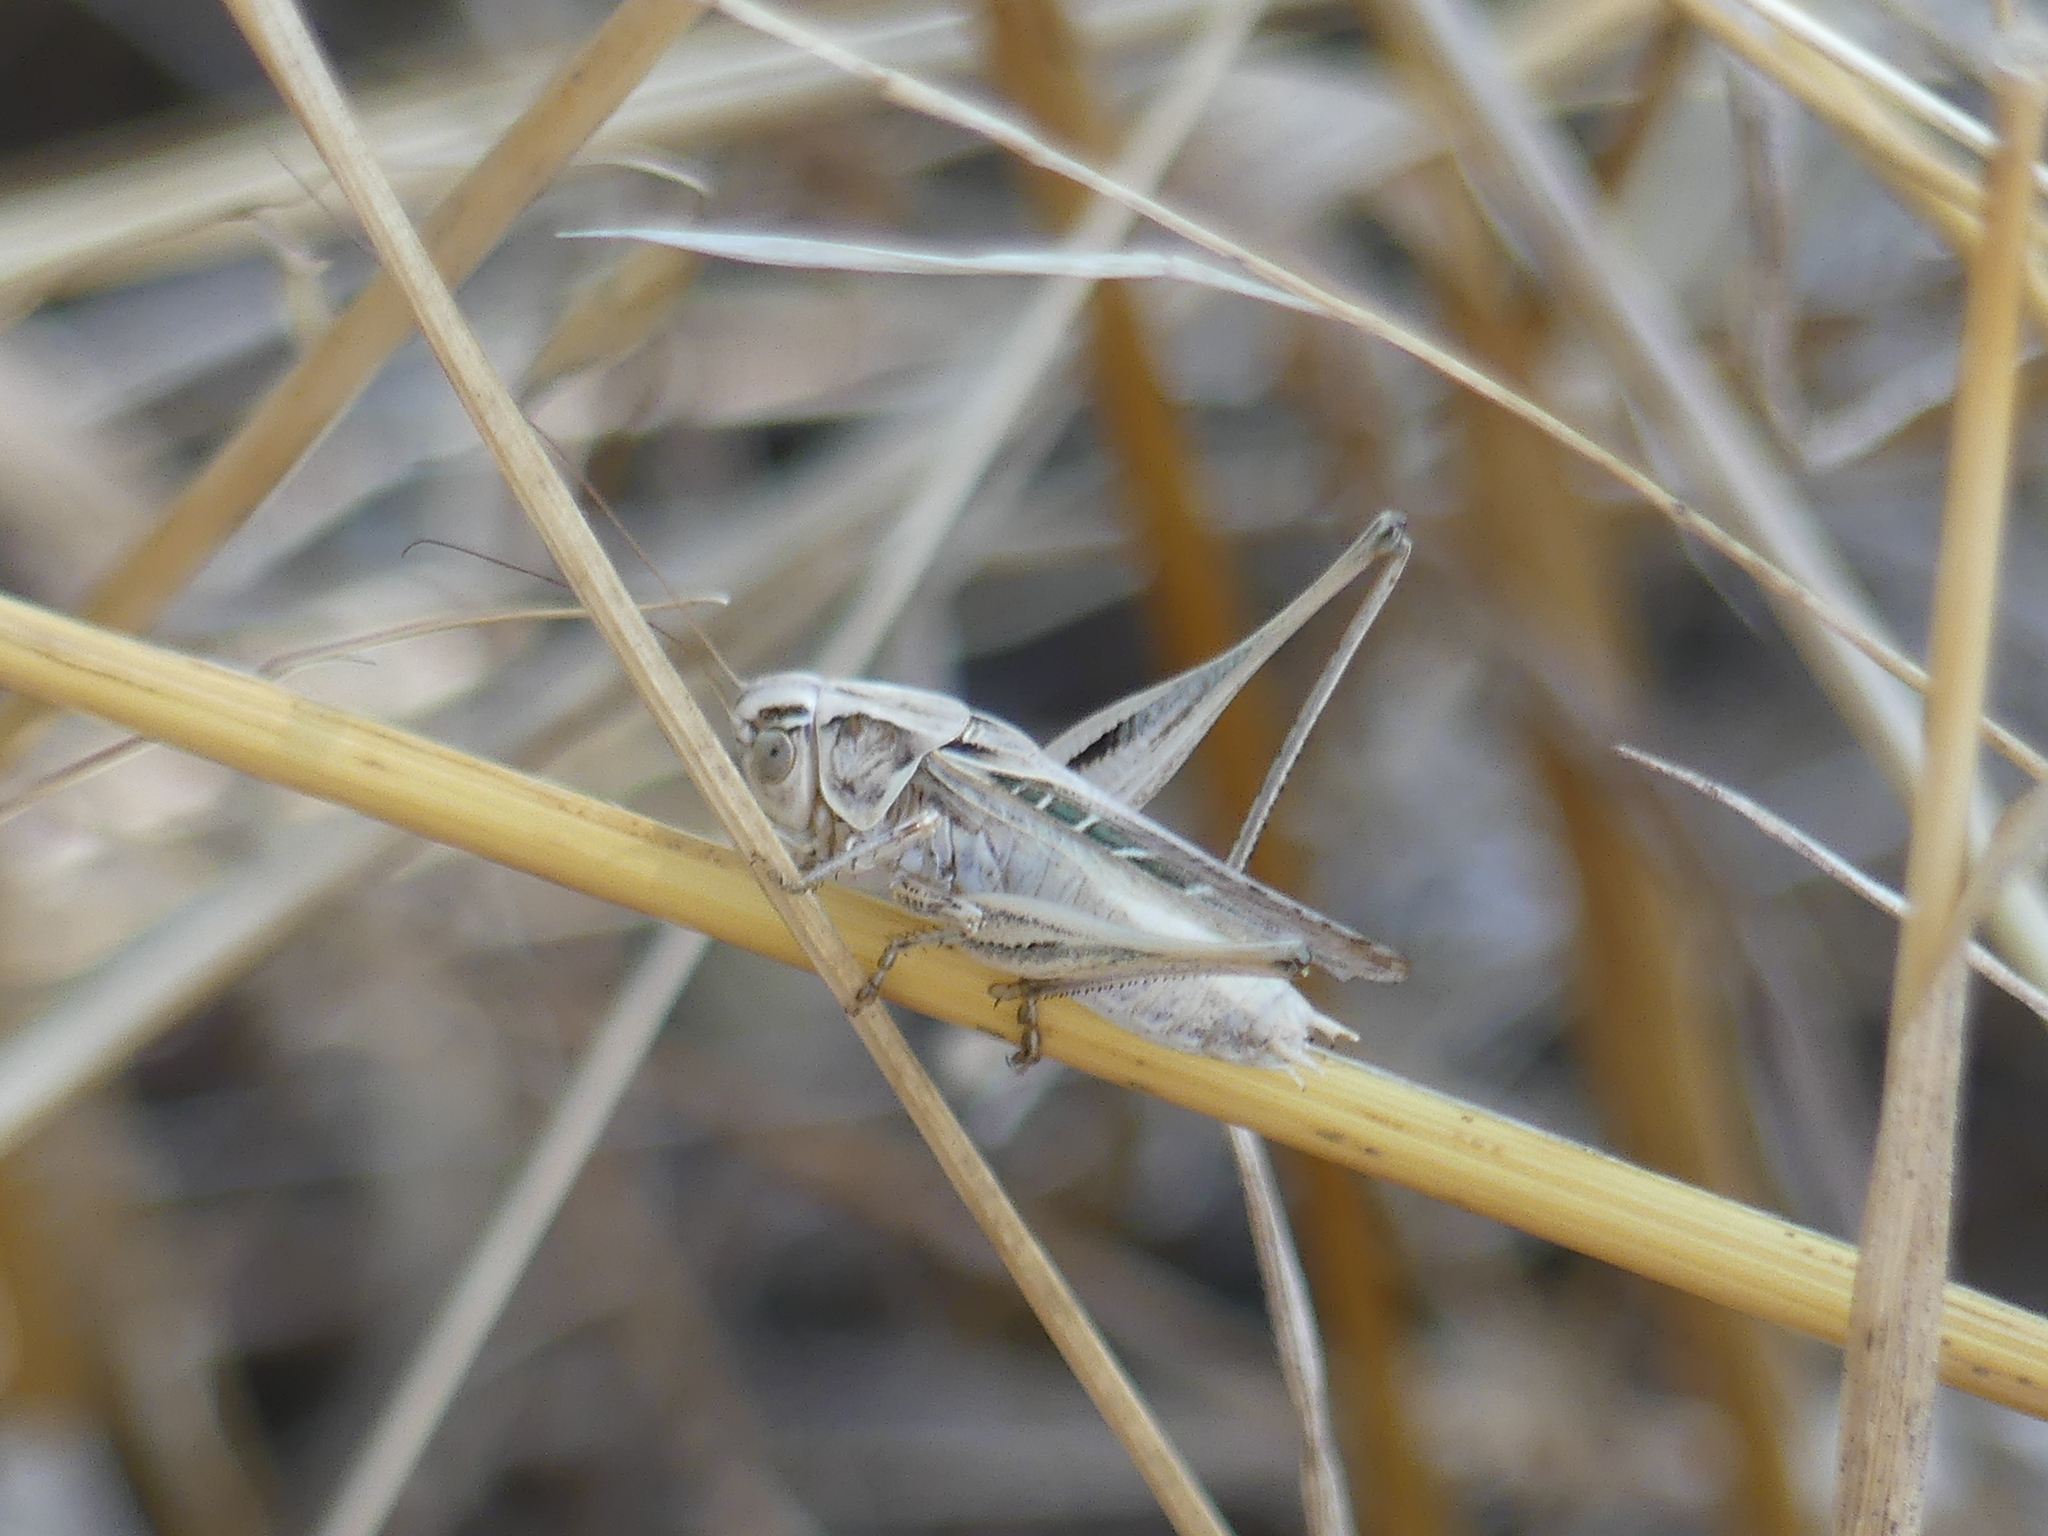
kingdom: Animalia
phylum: Arthropoda
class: Insecta
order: Orthoptera
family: Tettigoniidae
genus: Tessellana
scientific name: Tessellana tessellata
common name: Grasshopper
